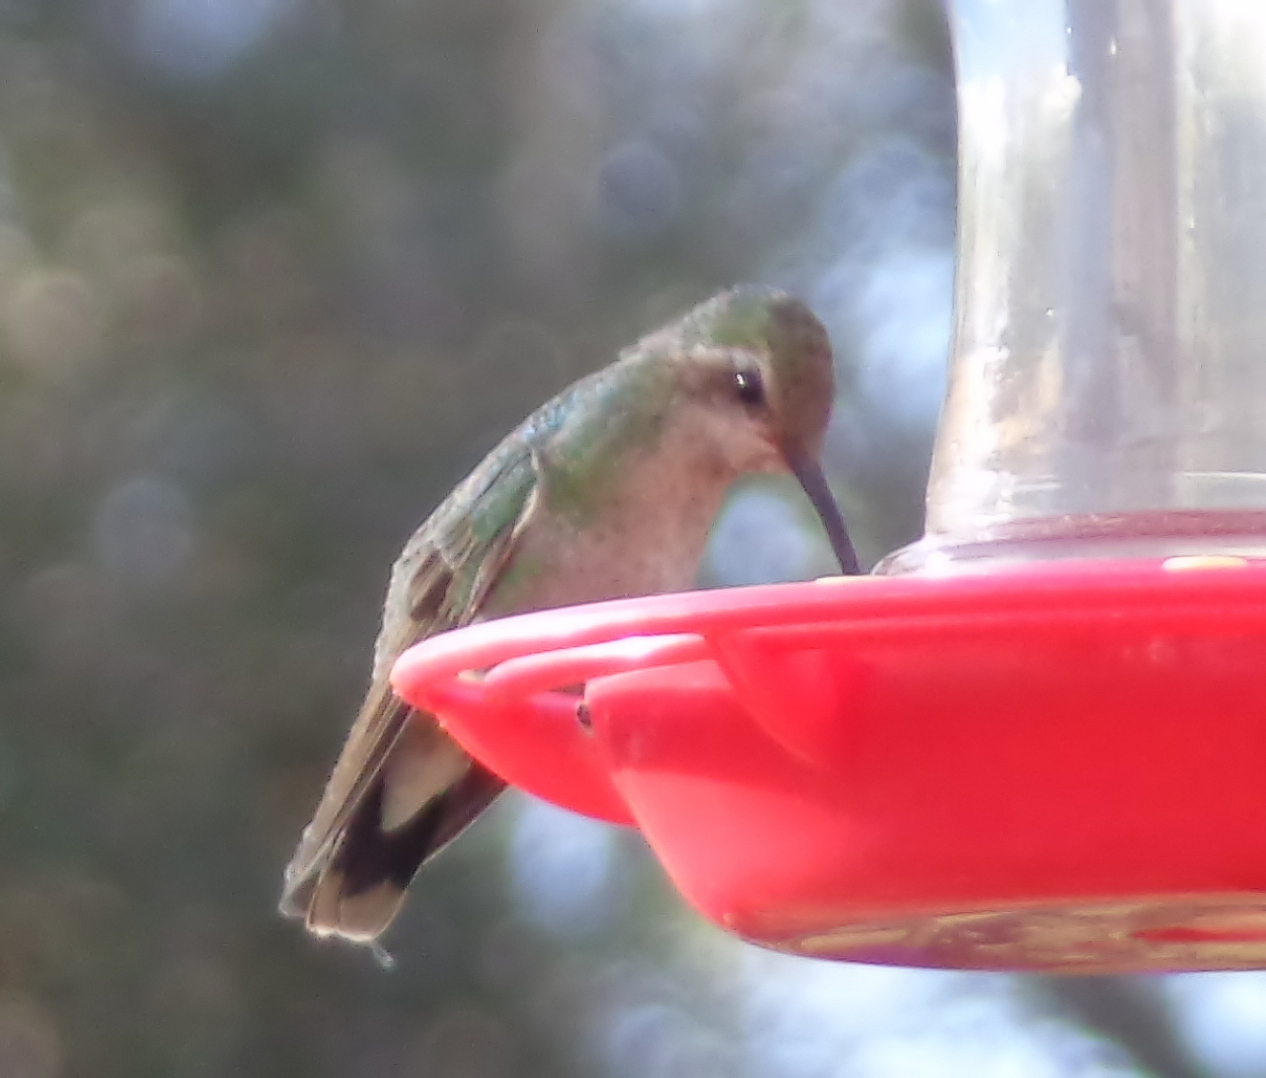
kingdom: Animalia
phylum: Chordata
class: Aves
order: Apodiformes
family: Trochilidae
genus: Cynanthus
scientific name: Cynanthus latirostris
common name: Broad-billed hummingbird
